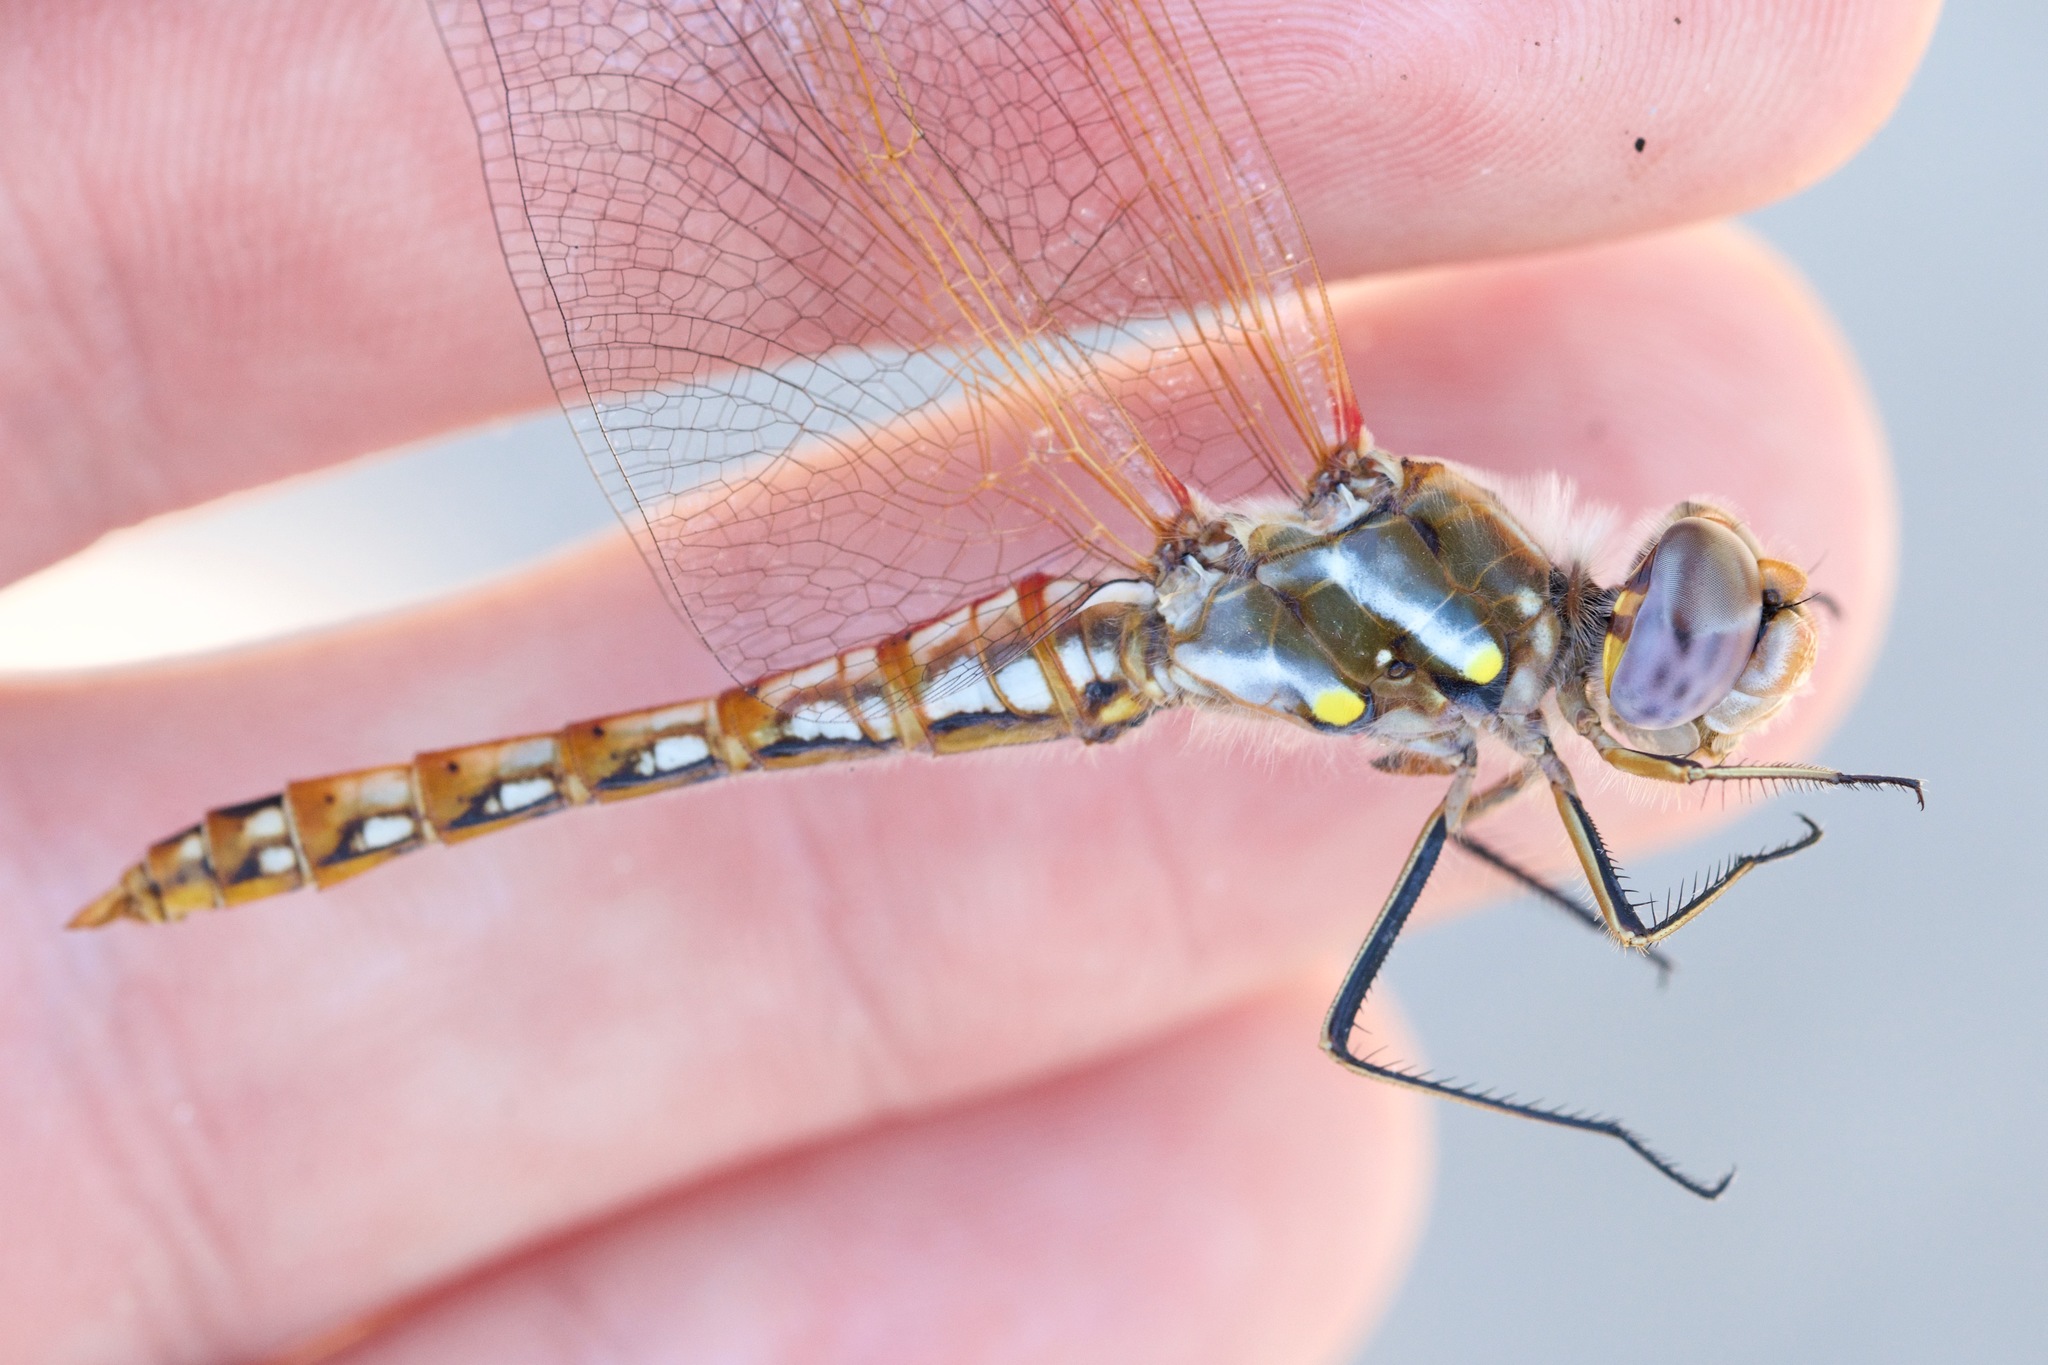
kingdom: Animalia
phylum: Arthropoda
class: Insecta
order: Odonata
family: Libellulidae
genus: Sympetrum
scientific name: Sympetrum corruptum
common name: Variegated meadowhawk
